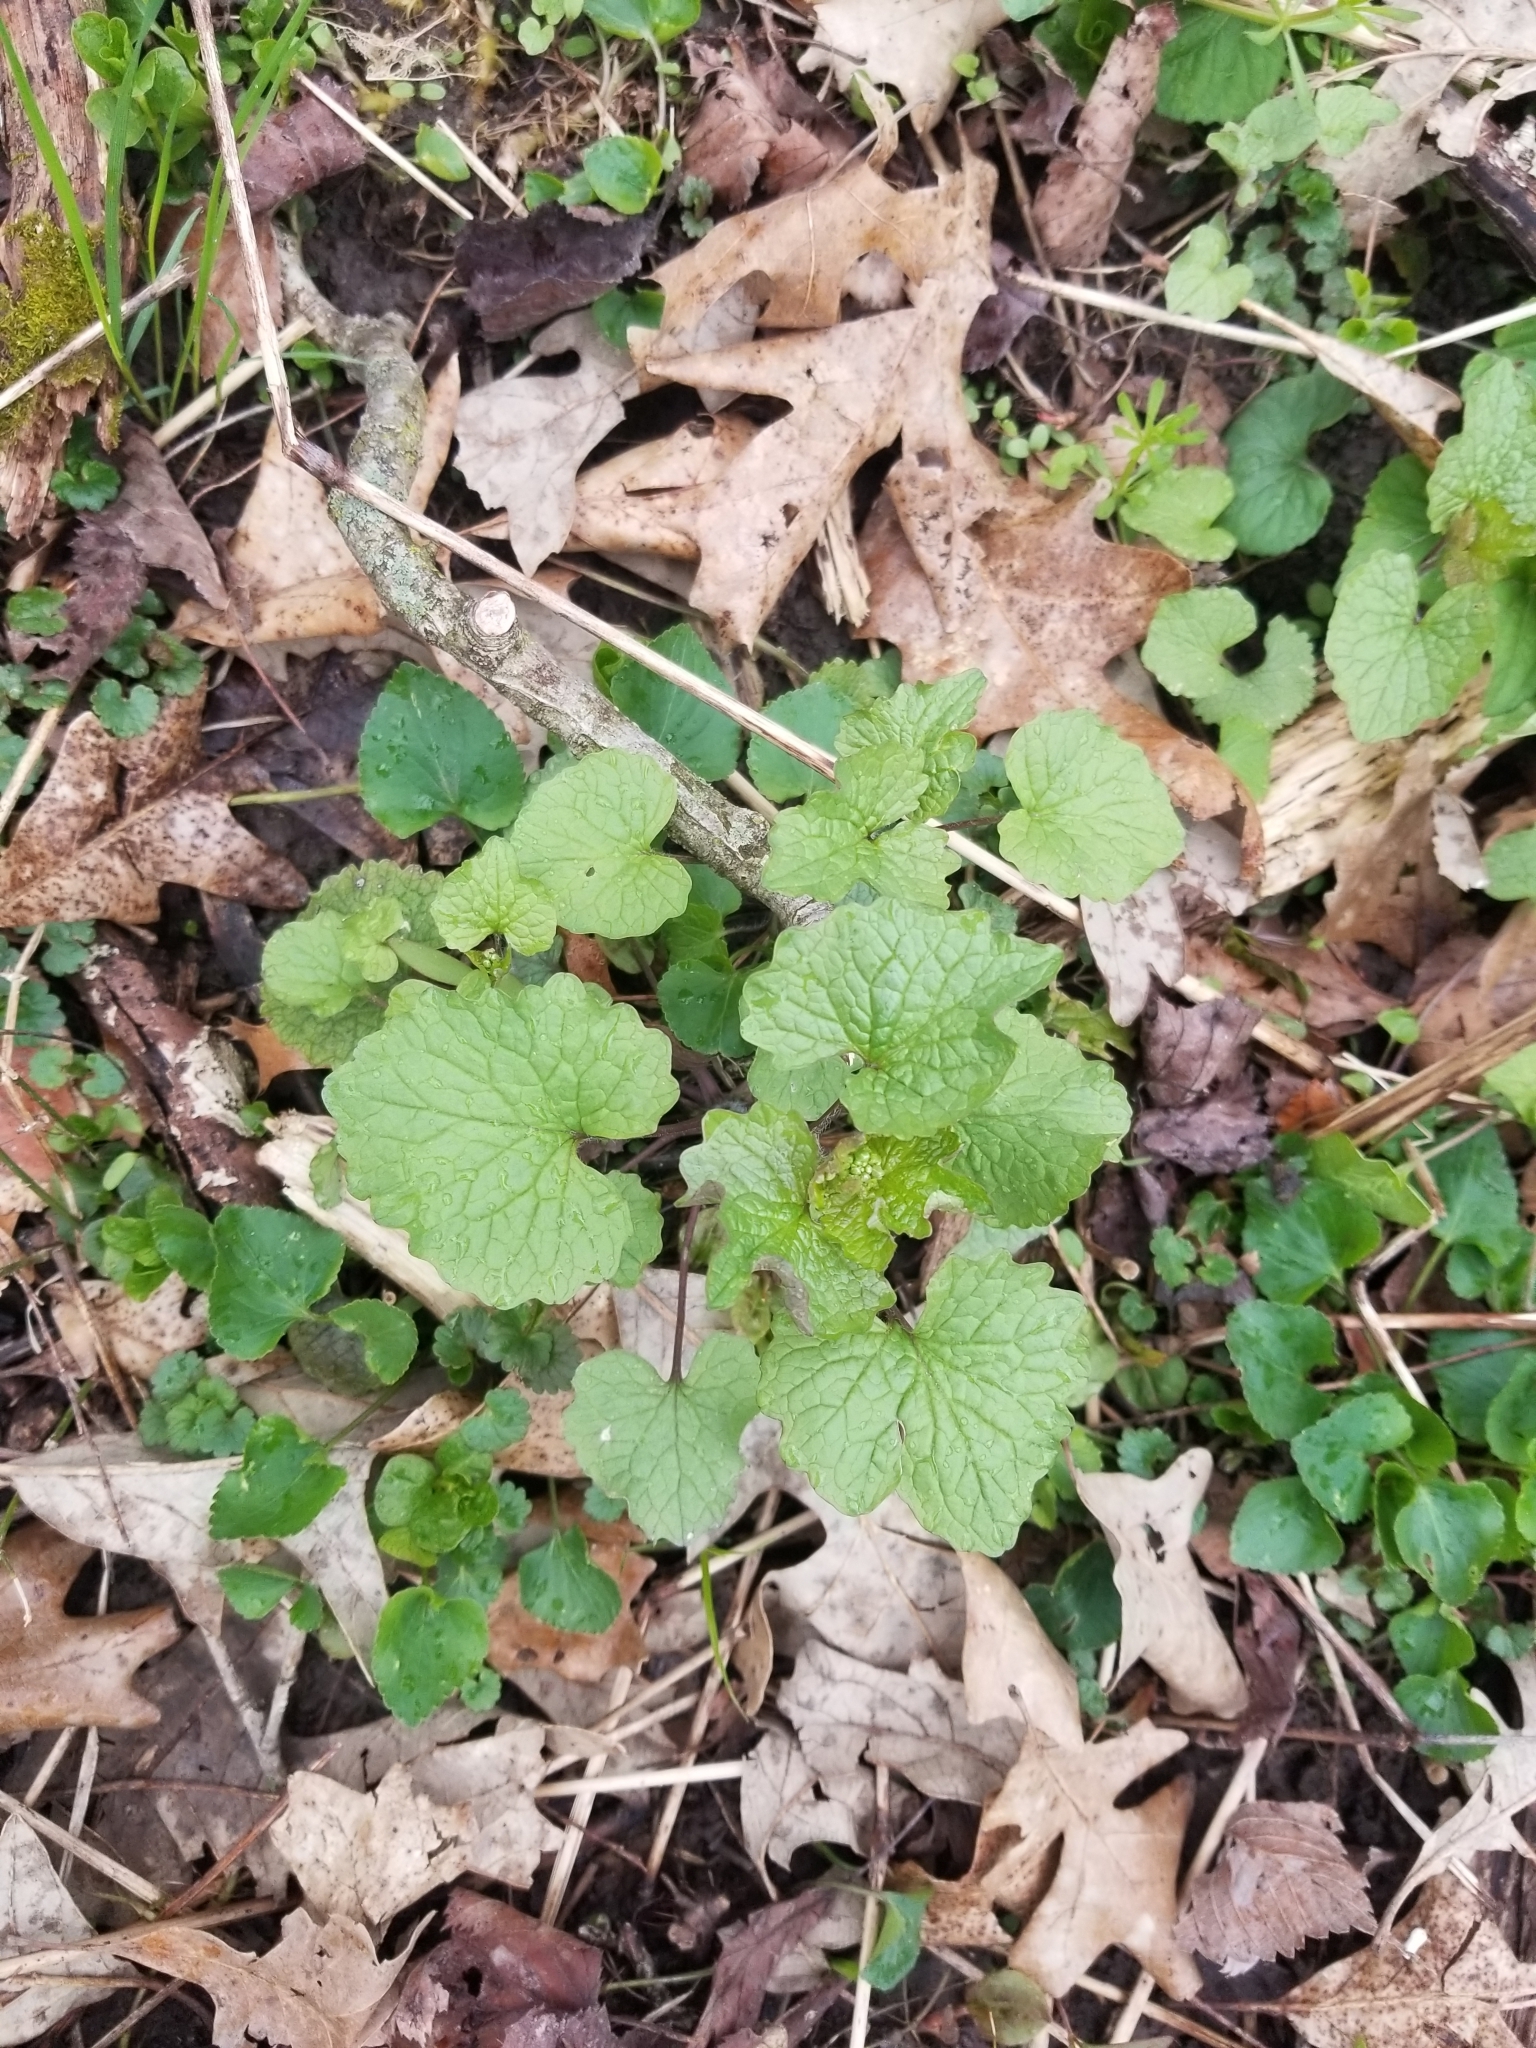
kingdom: Plantae
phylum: Tracheophyta
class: Magnoliopsida
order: Brassicales
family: Brassicaceae
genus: Alliaria
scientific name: Alliaria petiolata
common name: Garlic mustard
